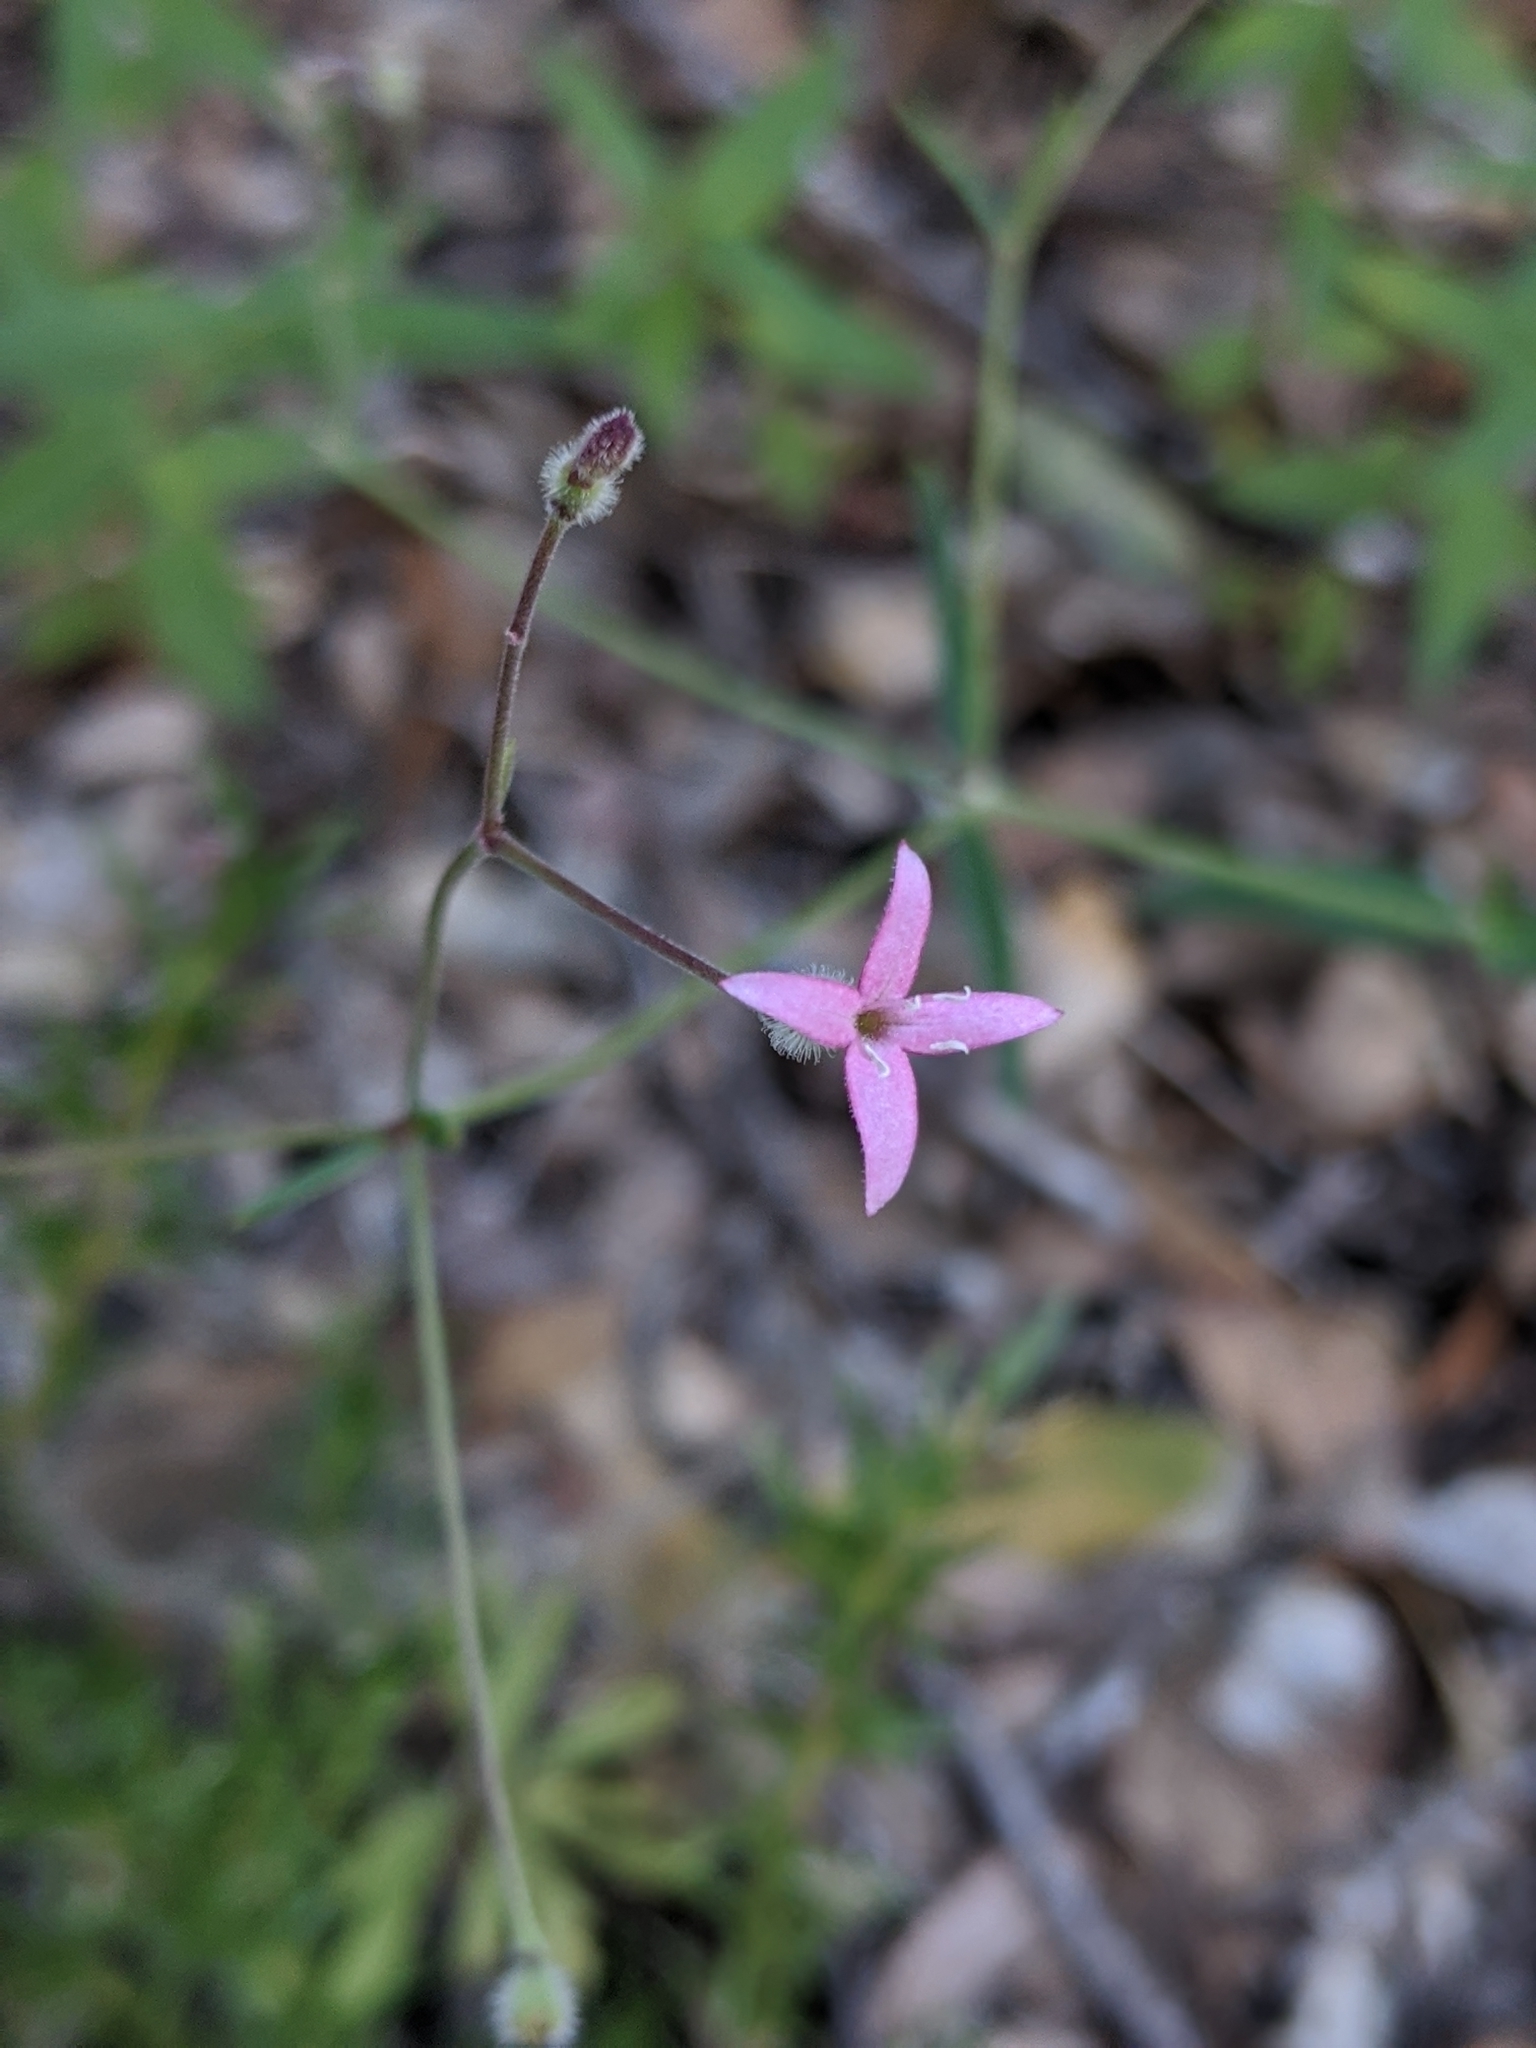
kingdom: Plantae
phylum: Tracheophyta
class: Magnoliopsida
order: Gentianales
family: Rubiaceae
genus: Kelloggia
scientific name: Kelloggia galioides
